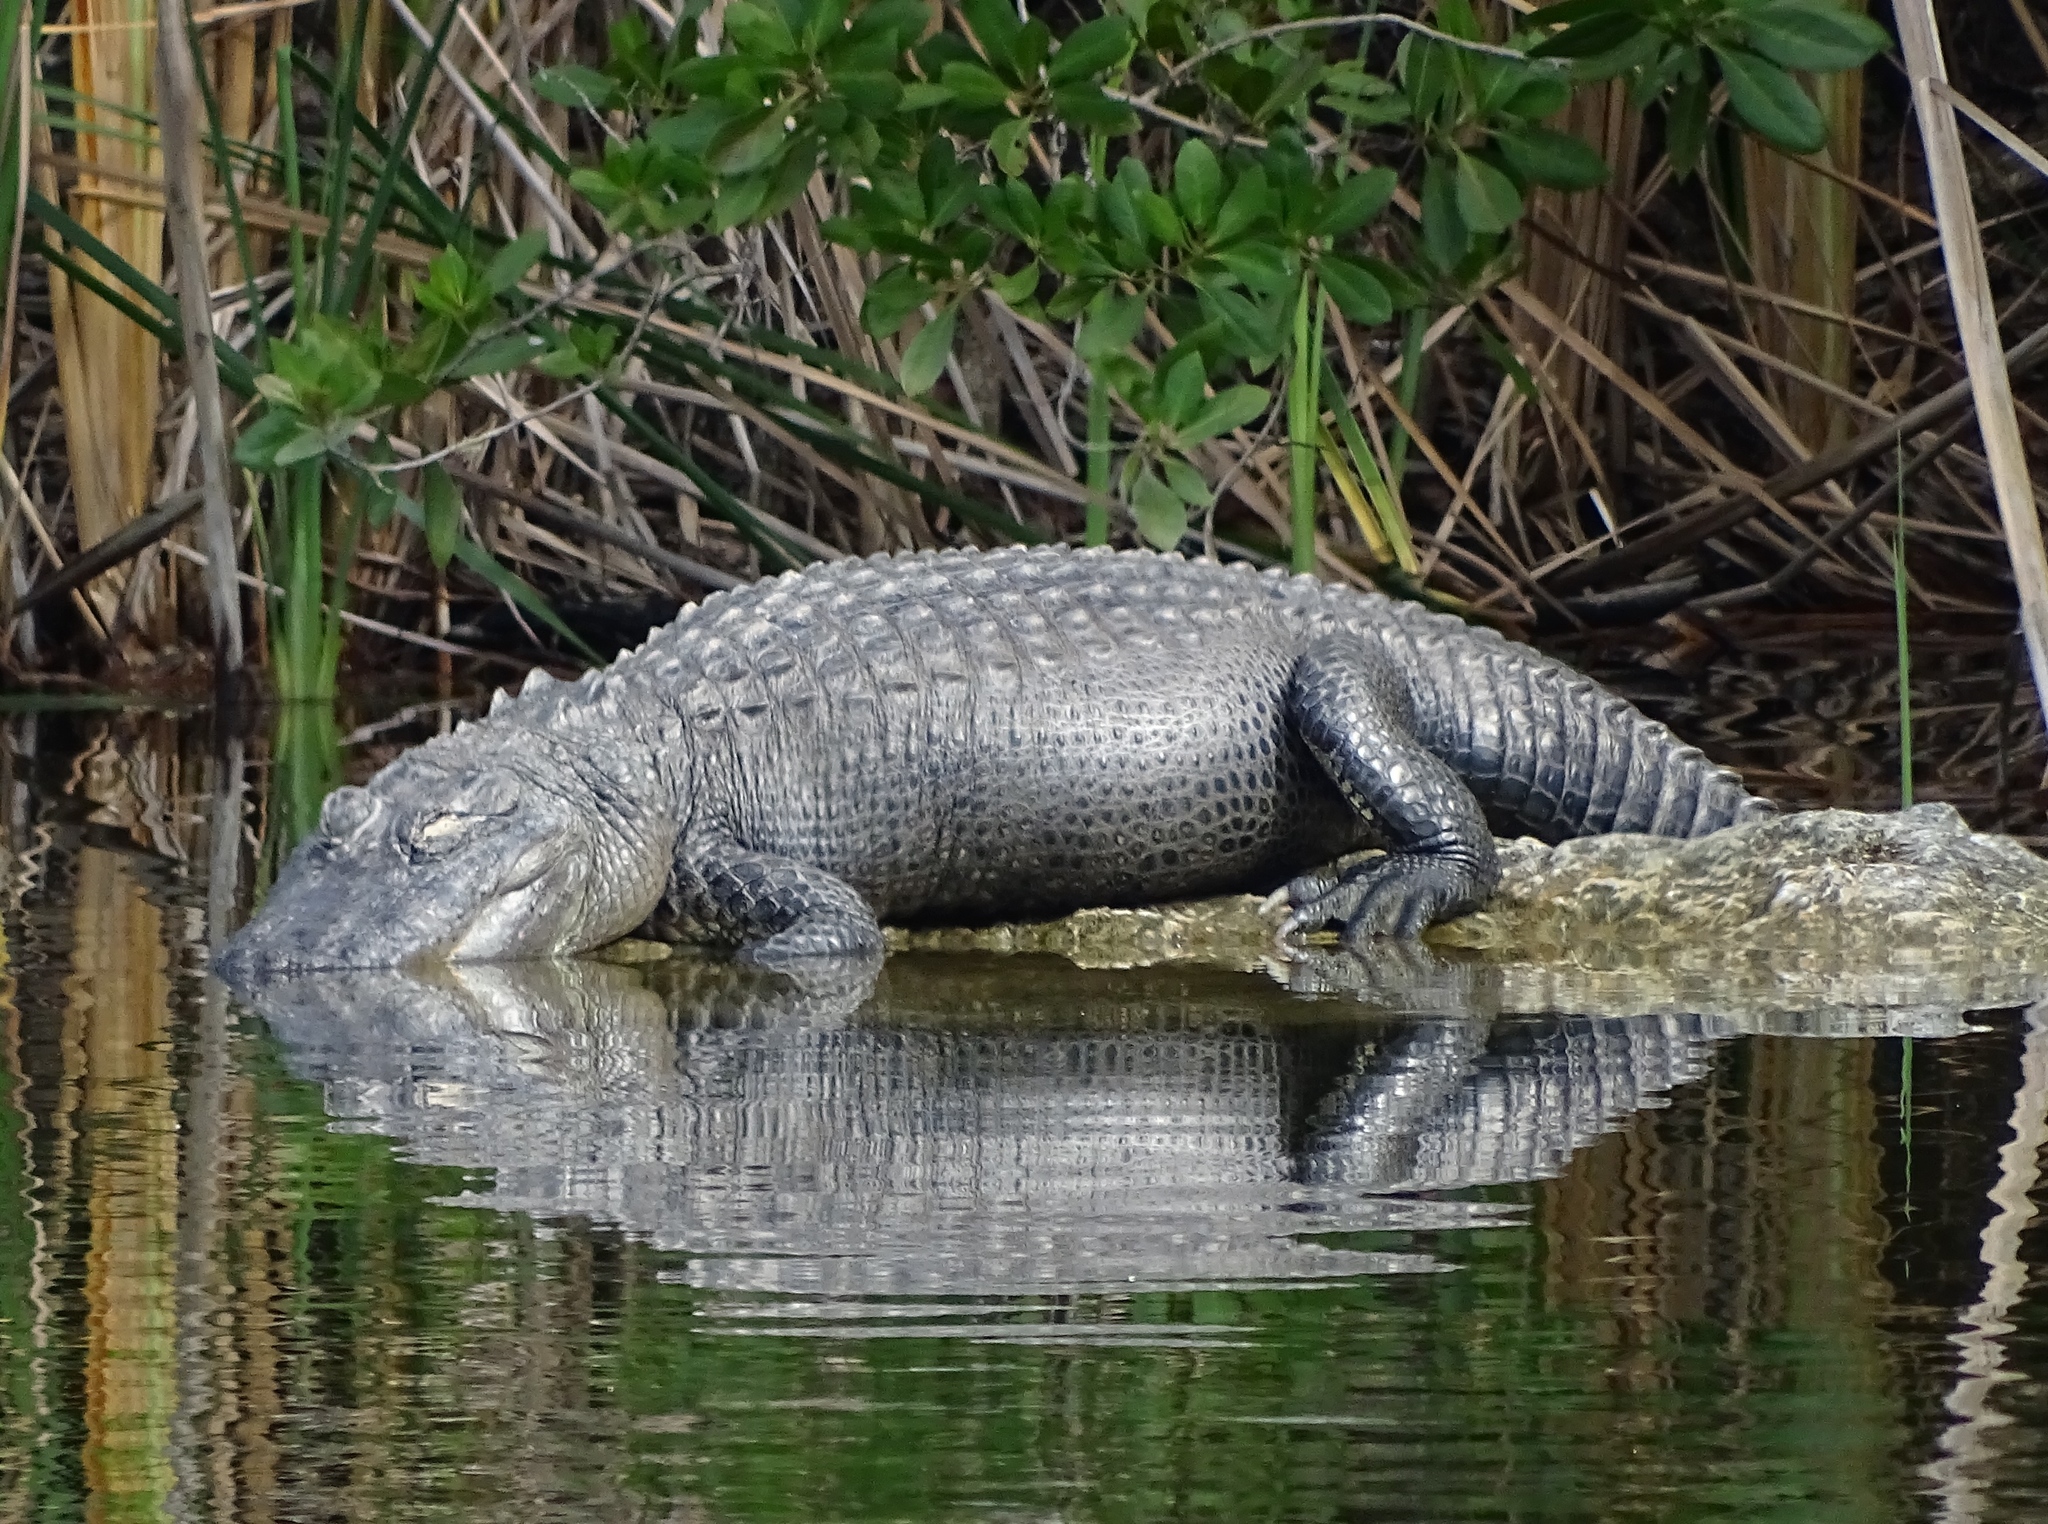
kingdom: Animalia
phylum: Chordata
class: Crocodylia
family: Alligatoridae
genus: Alligator
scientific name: Alligator mississippiensis
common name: American alligator
